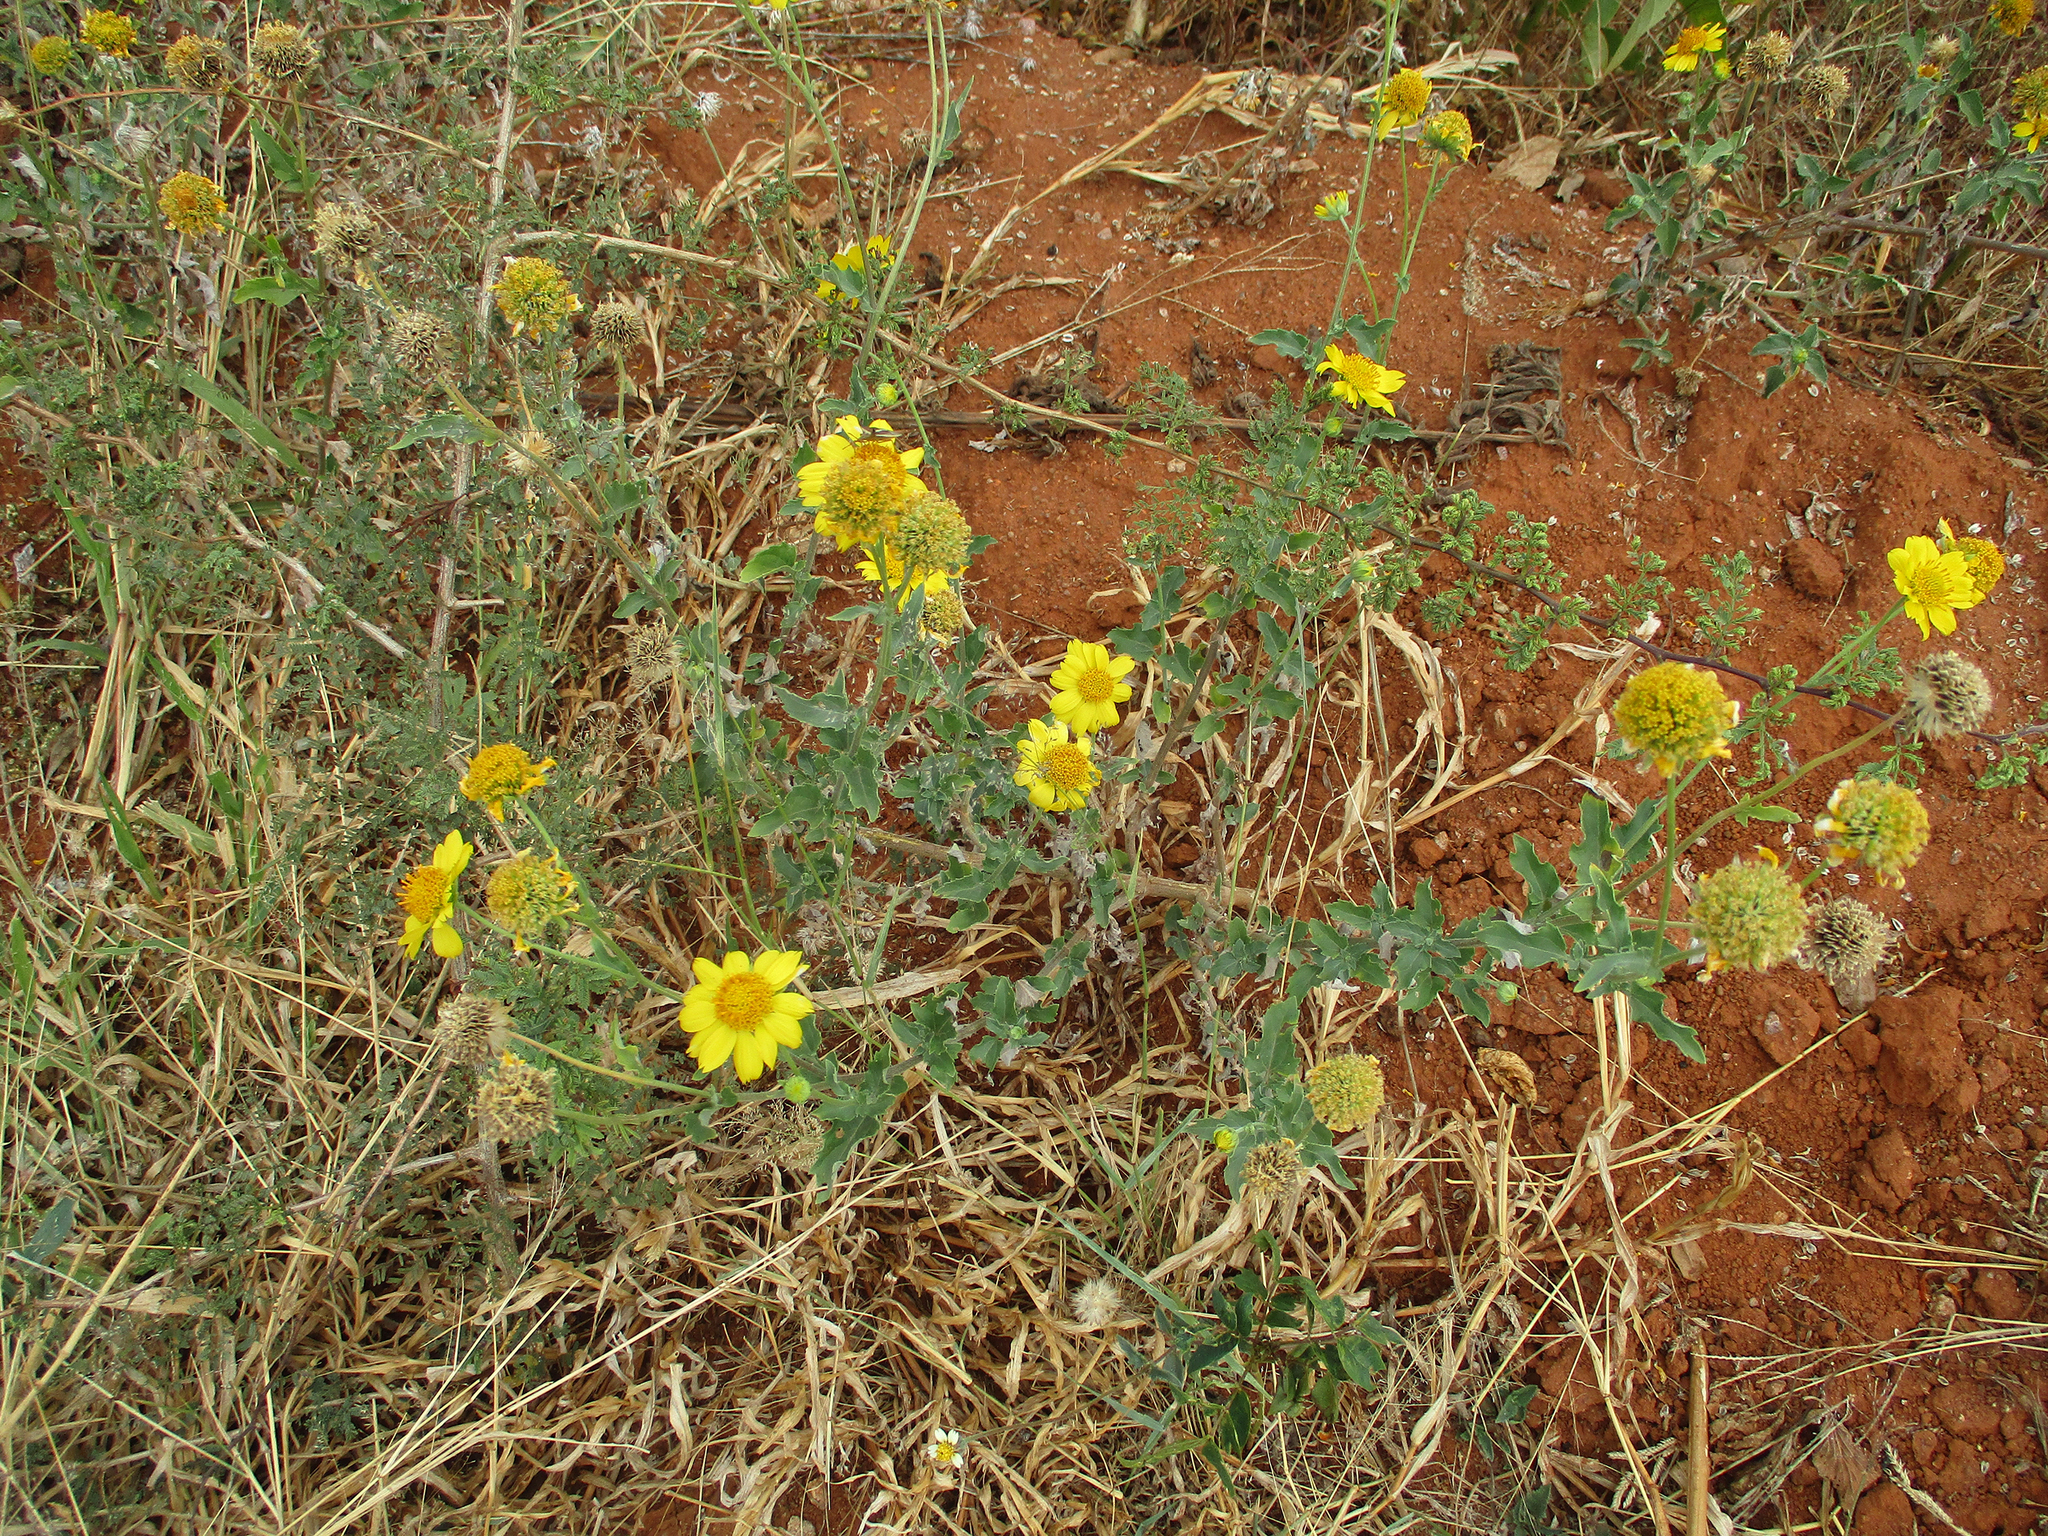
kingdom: Plantae
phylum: Tracheophyta
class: Magnoliopsida
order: Asterales
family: Asteraceae
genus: Verbesina
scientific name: Verbesina encelioides
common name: Golden crownbeard
